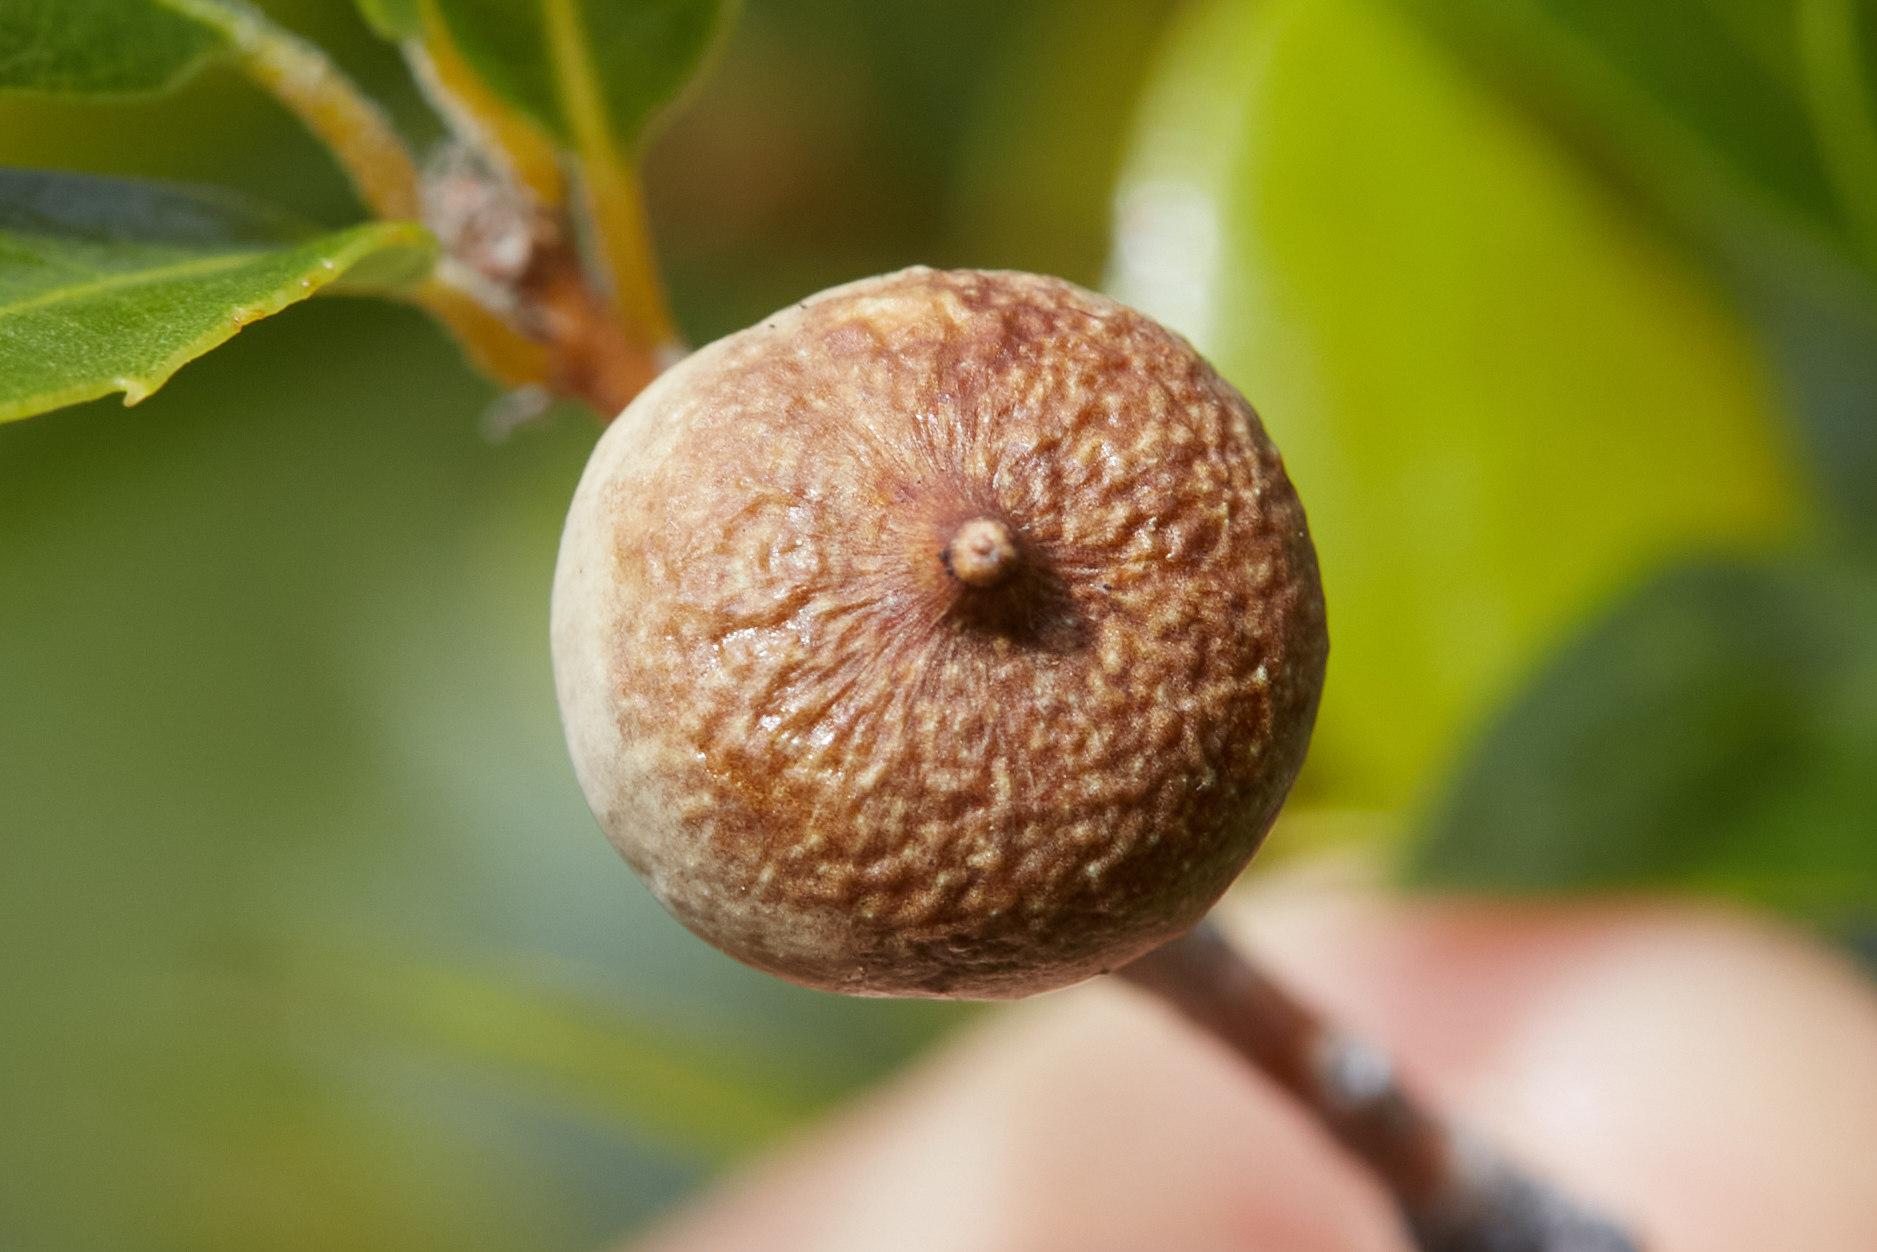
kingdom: Animalia
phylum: Arthropoda
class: Insecta
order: Hymenoptera
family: Cynipidae
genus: Heteroecus
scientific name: Heteroecus pacificus
